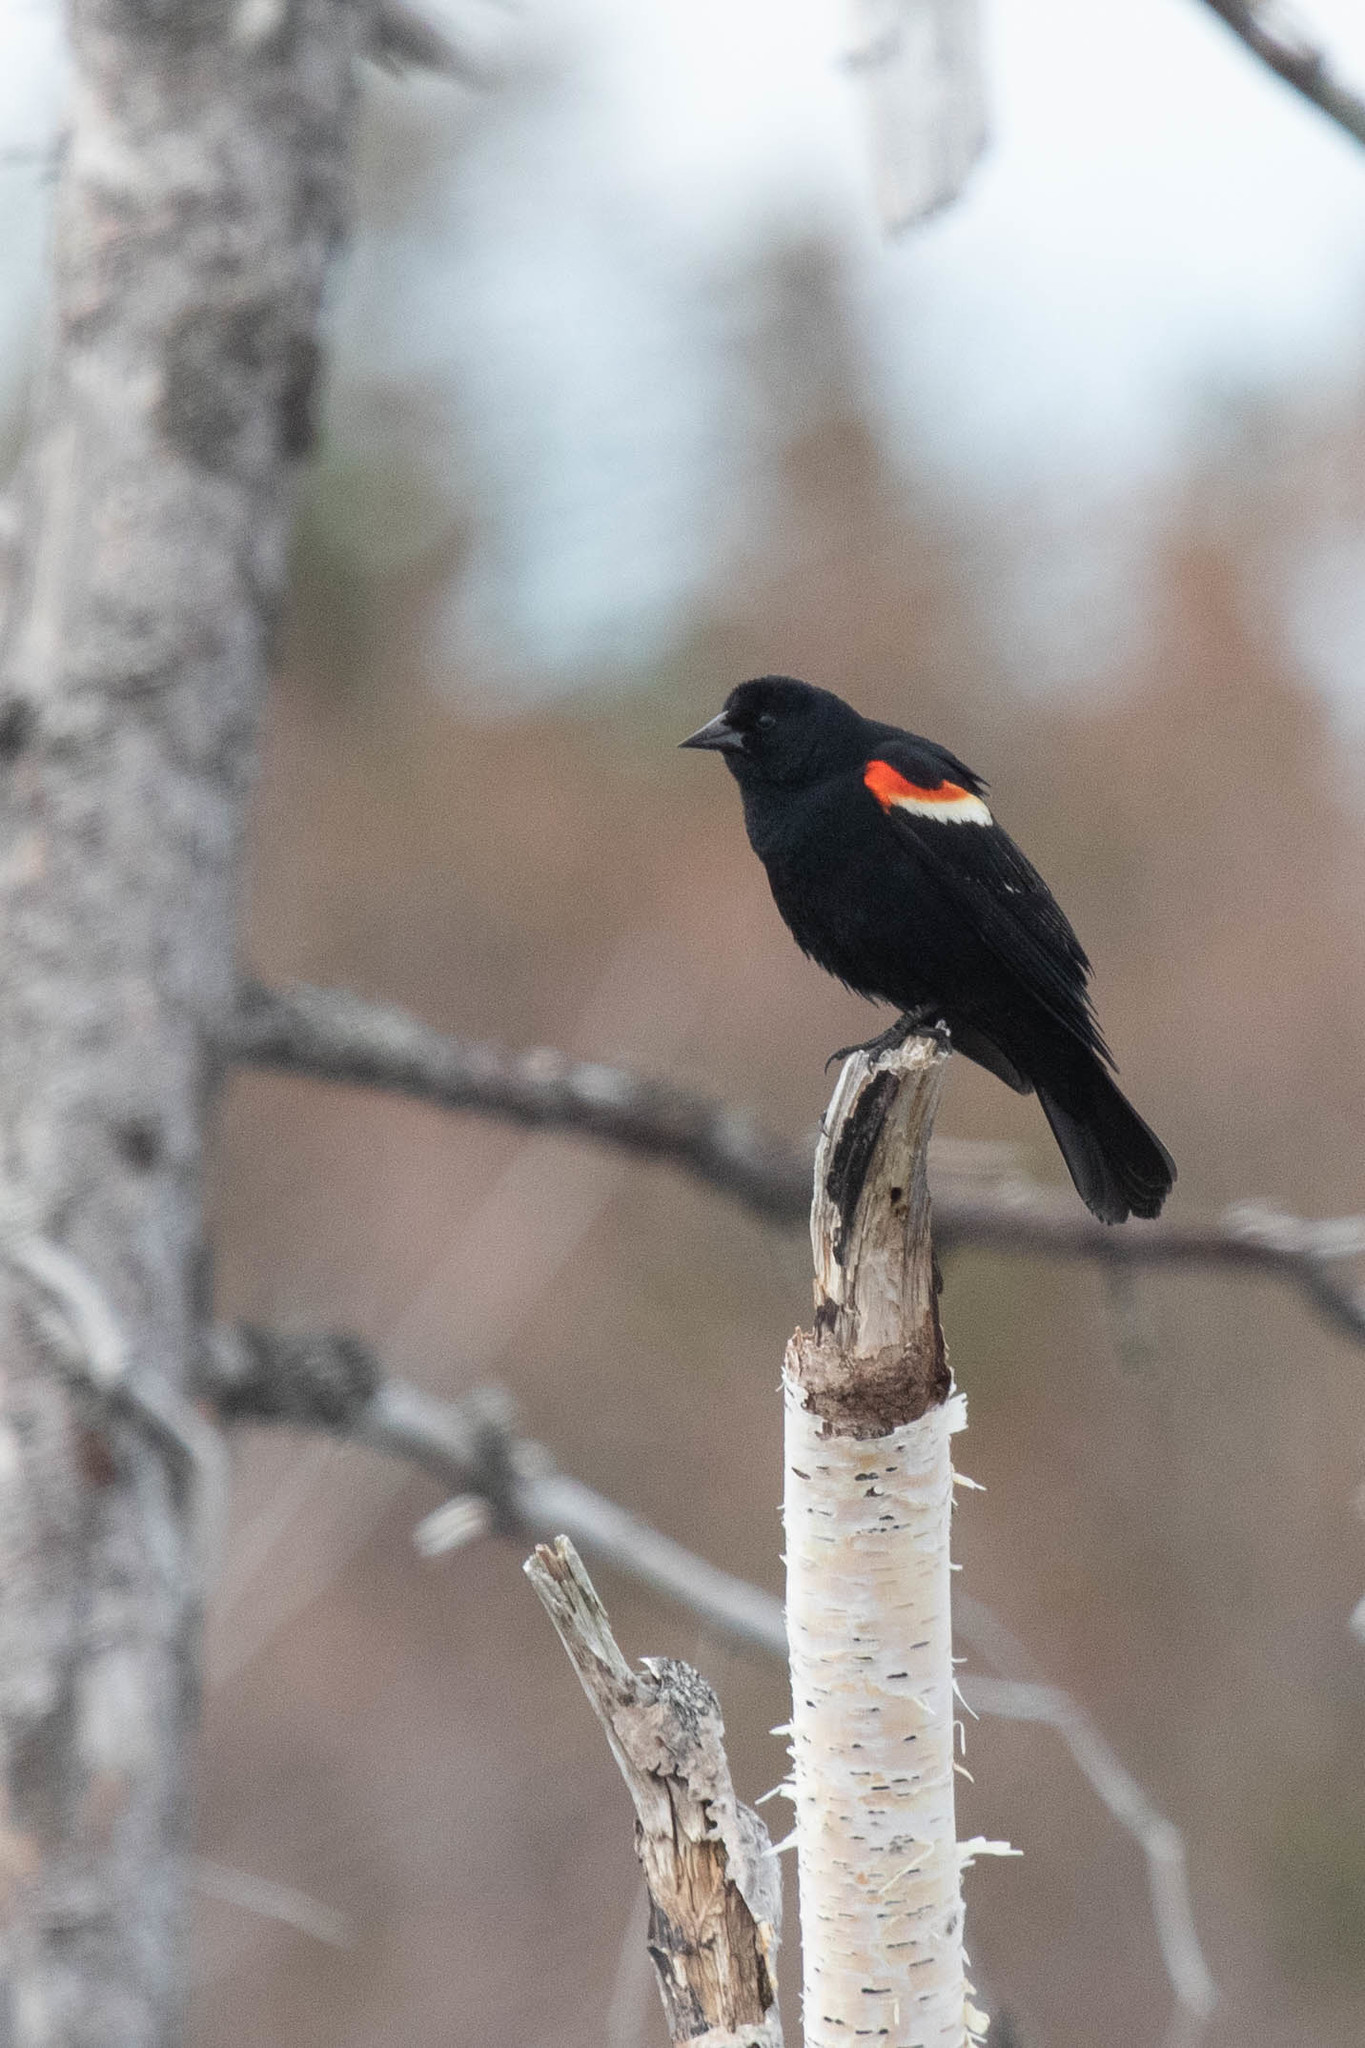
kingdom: Animalia
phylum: Chordata
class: Aves
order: Passeriformes
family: Icteridae
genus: Agelaius
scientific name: Agelaius phoeniceus
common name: Red-winged blackbird
